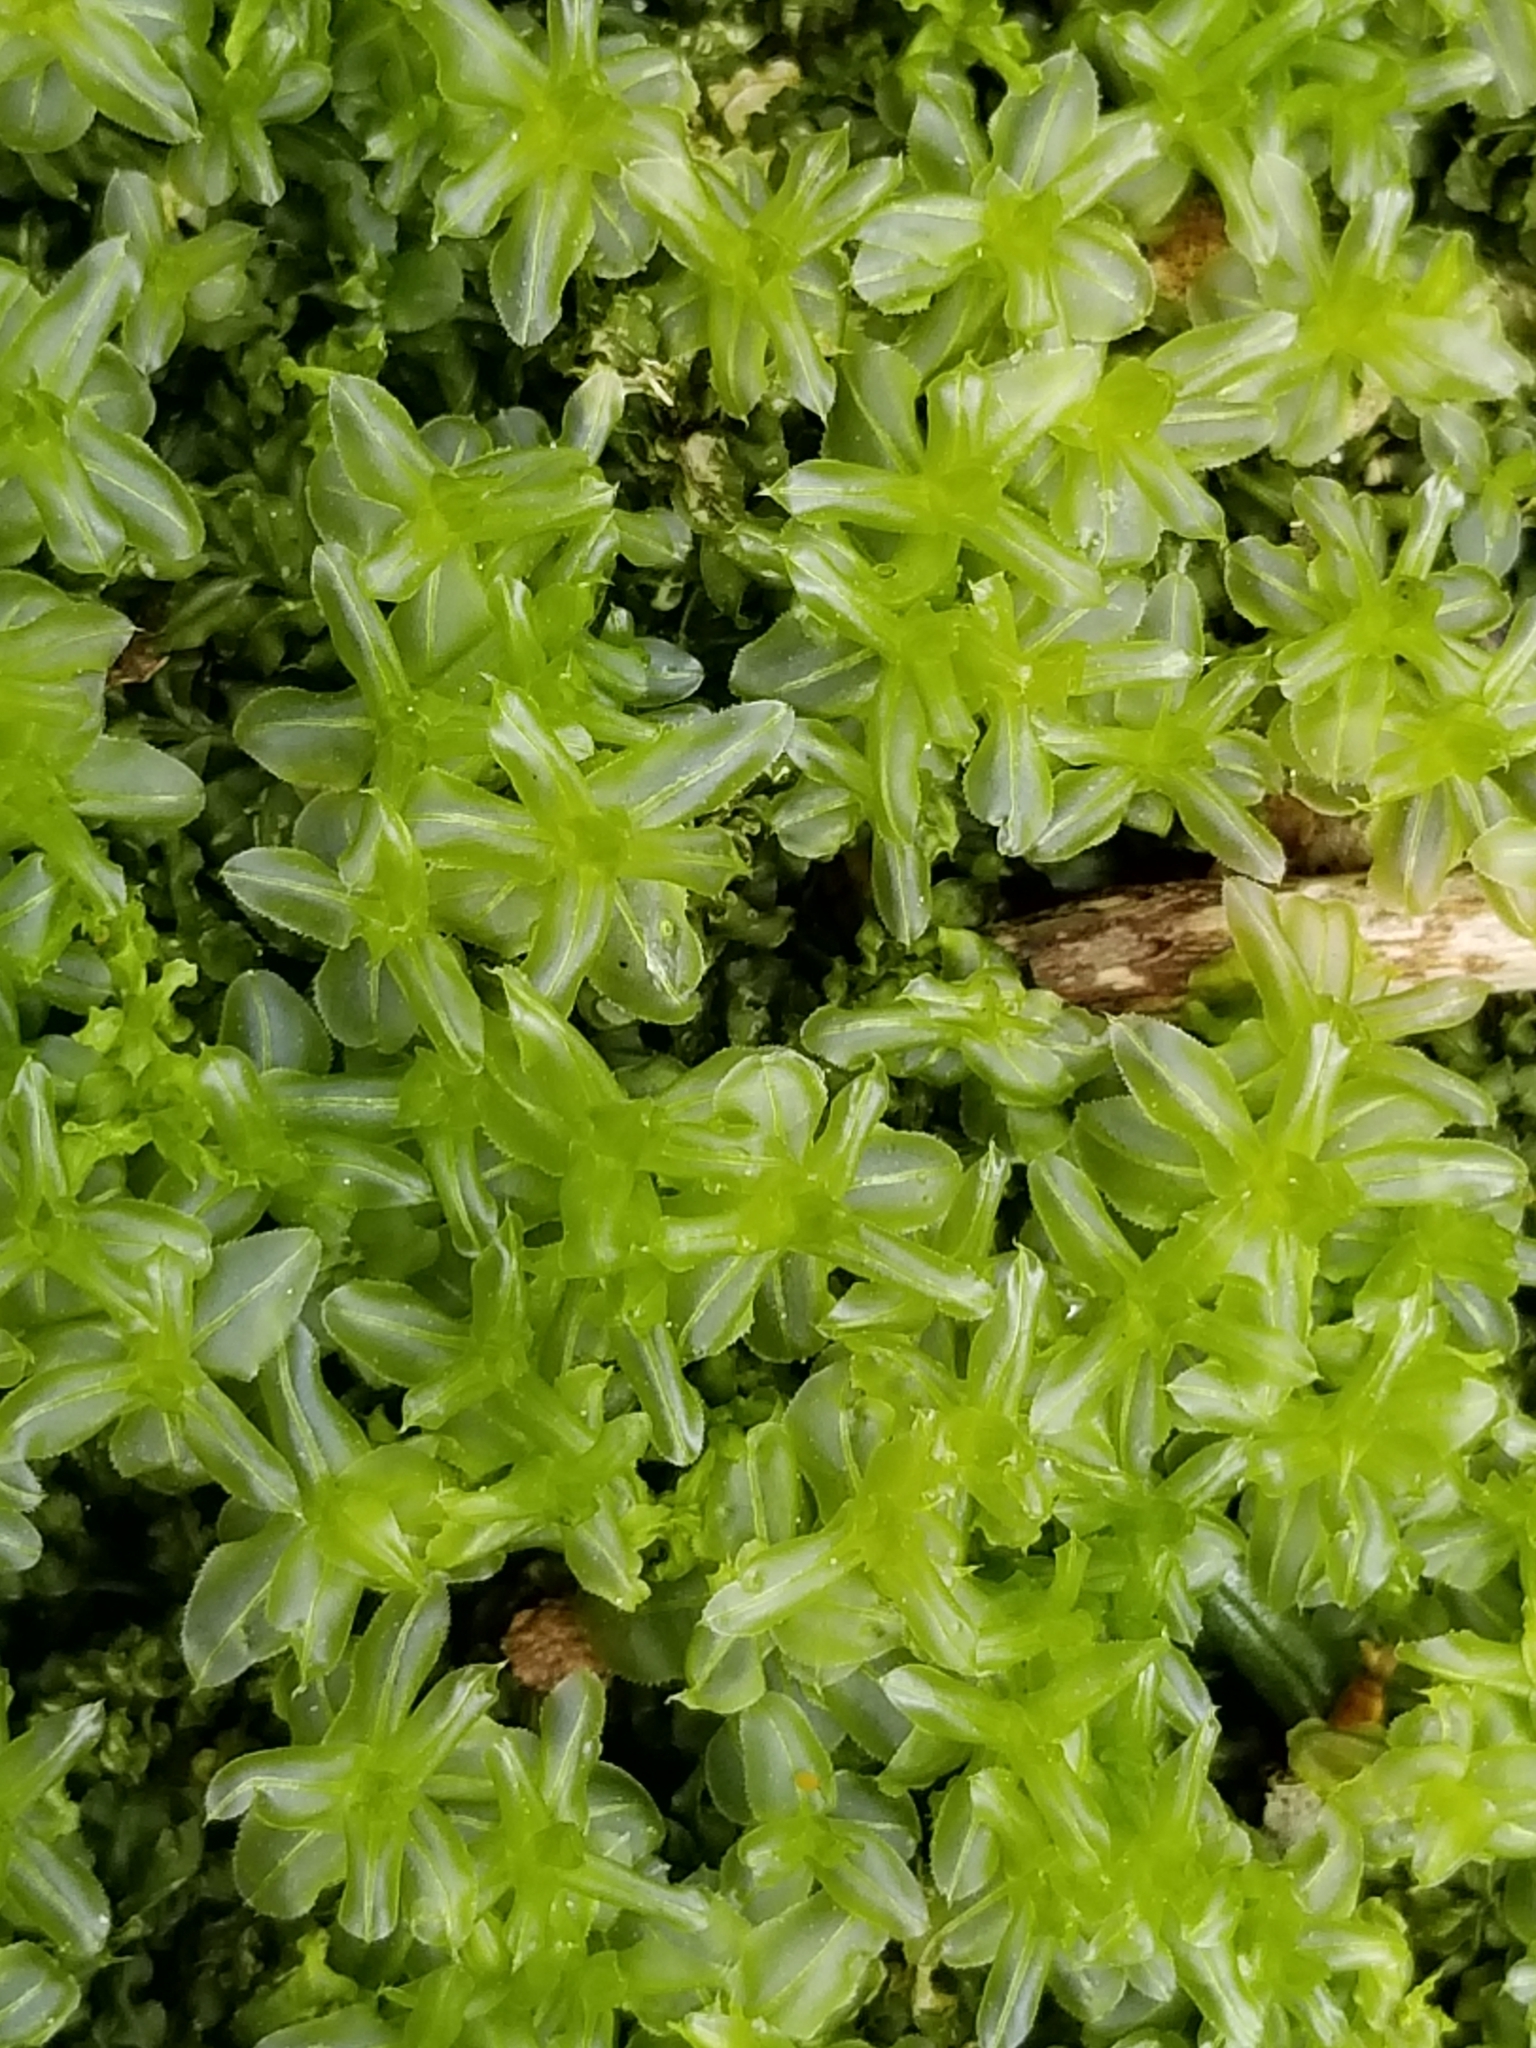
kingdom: Plantae
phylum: Bryophyta
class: Bryopsida
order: Bryales
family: Mniaceae
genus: Plagiomnium
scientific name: Plagiomnium ciliare
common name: Toothed leafy moss
